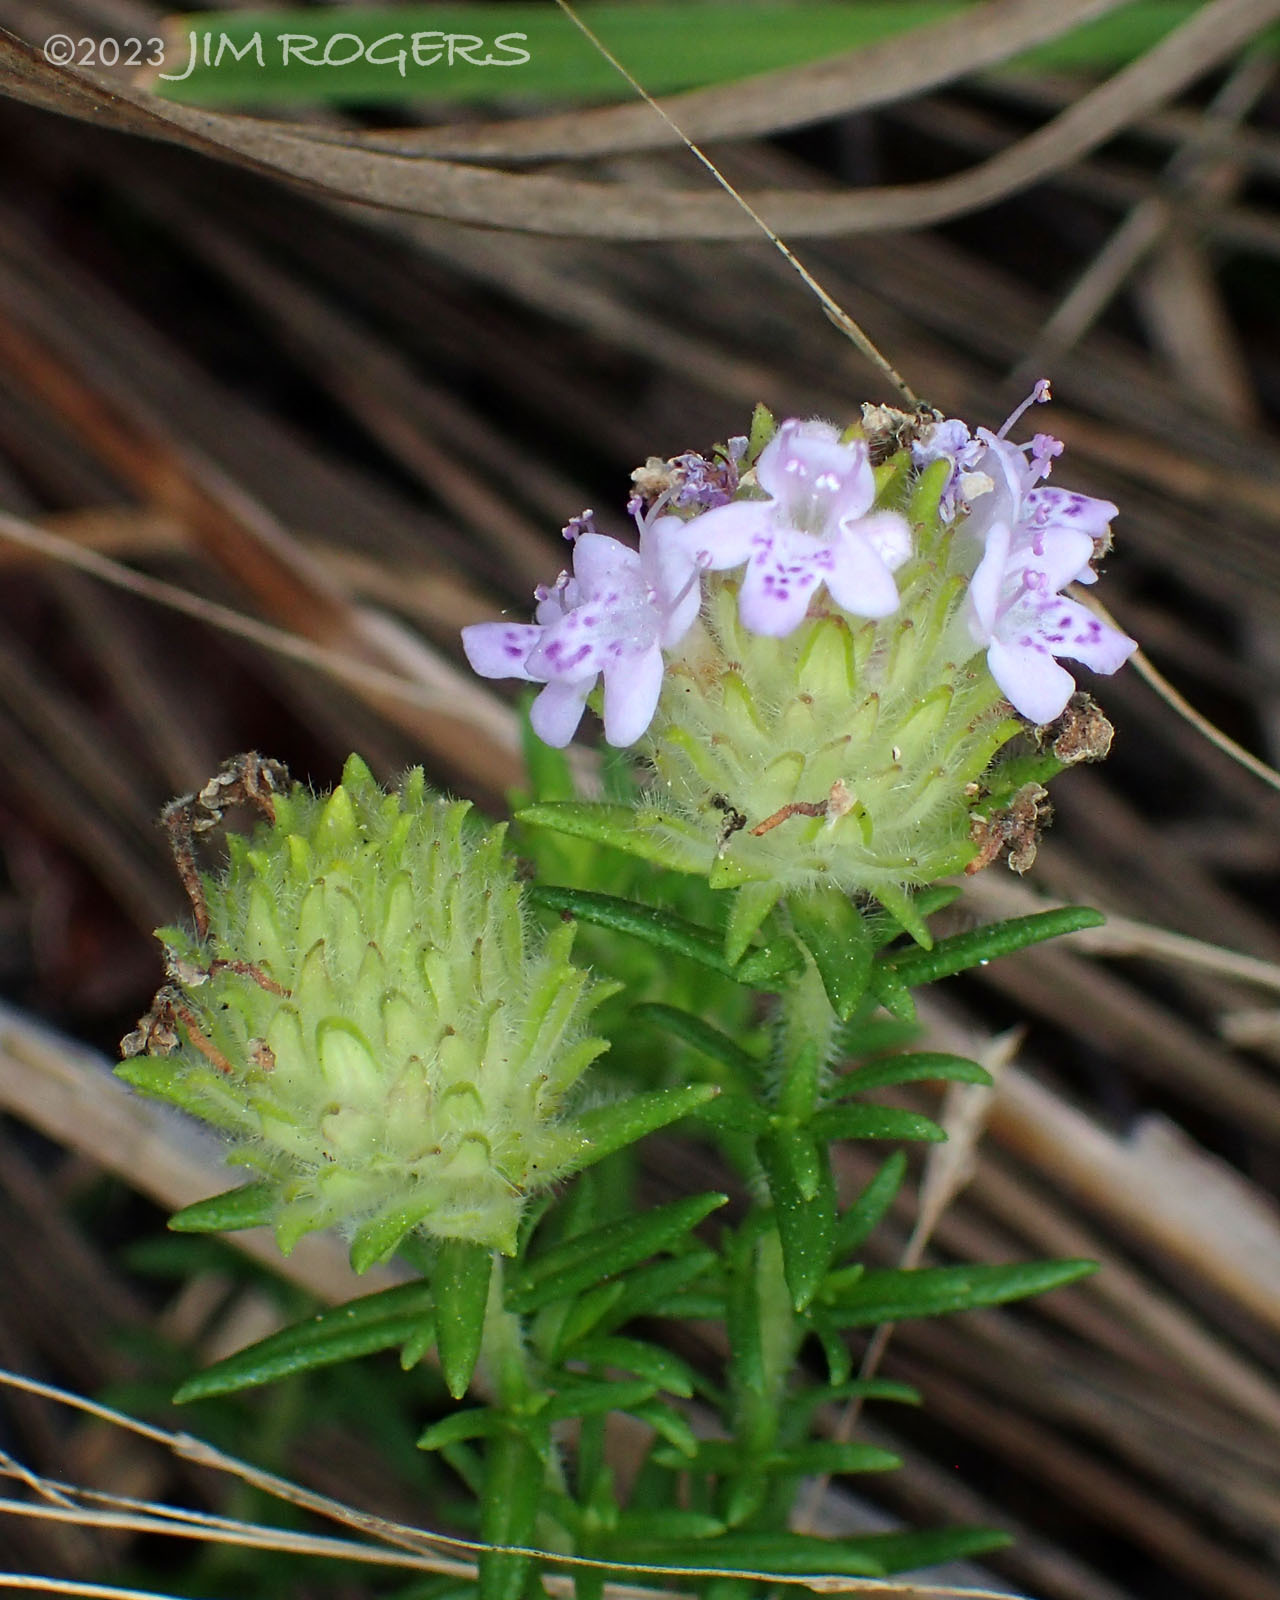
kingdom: Plantae
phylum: Tracheophyta
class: Magnoliopsida
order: Lamiales
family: Lamiaceae
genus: Piloblephis
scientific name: Piloblephis rigida
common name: Wild pennyroyal
